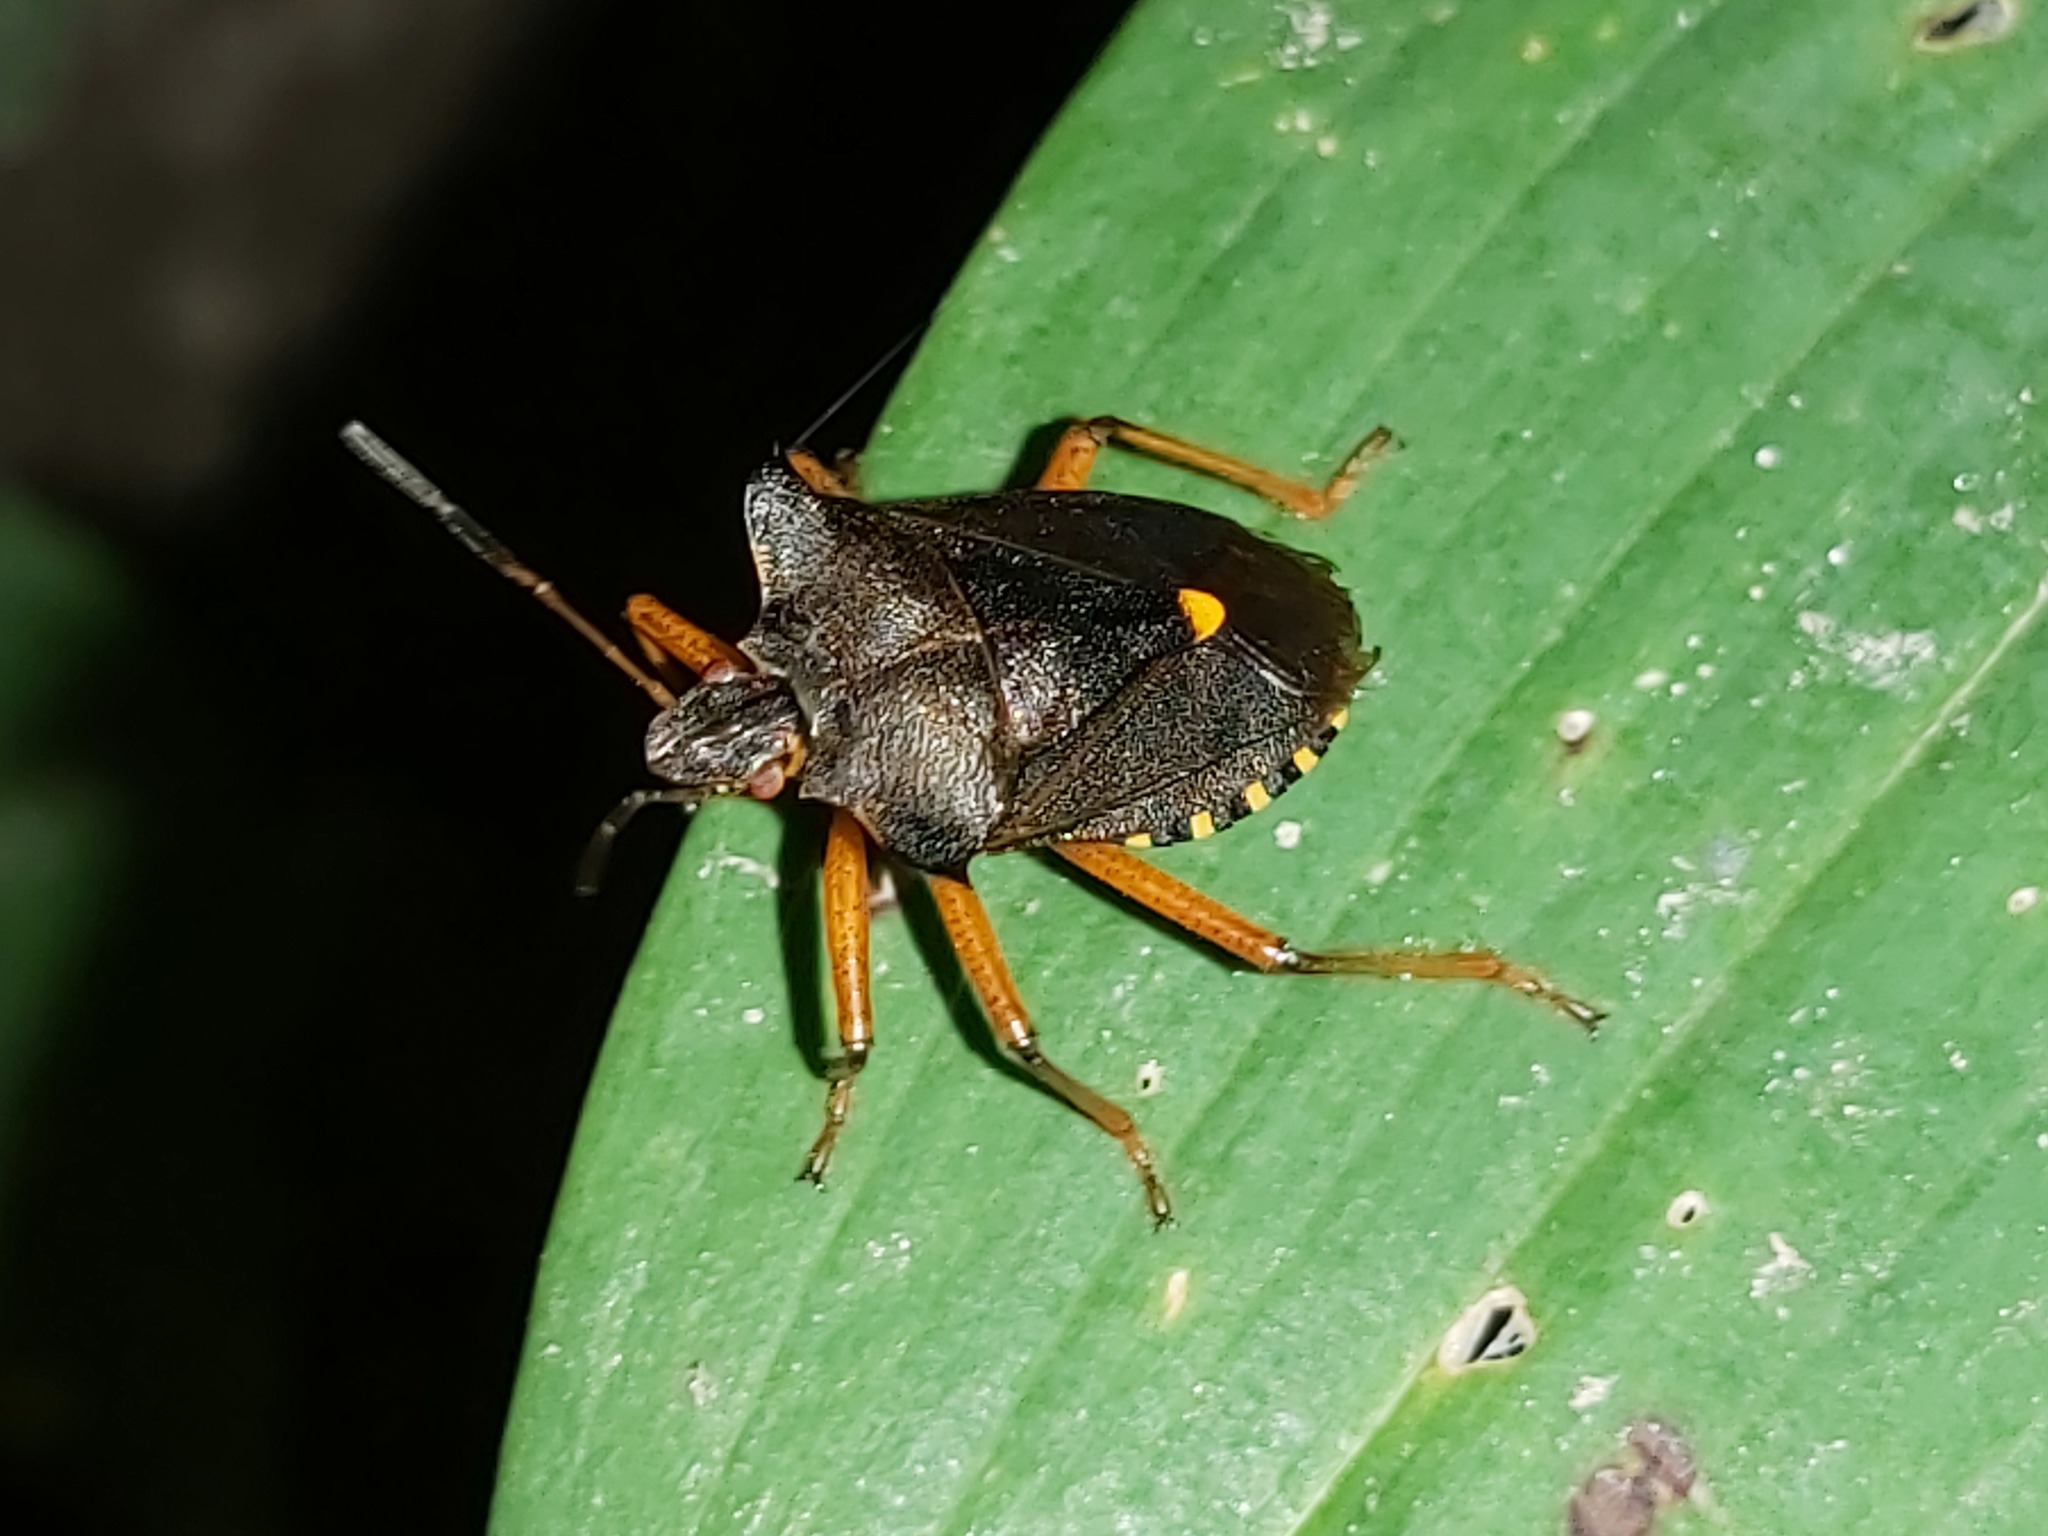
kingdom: Animalia
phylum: Arthropoda
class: Insecta
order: Hemiptera
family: Pentatomidae
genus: Pentatoma
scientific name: Pentatoma rufipes
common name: Forest bug
